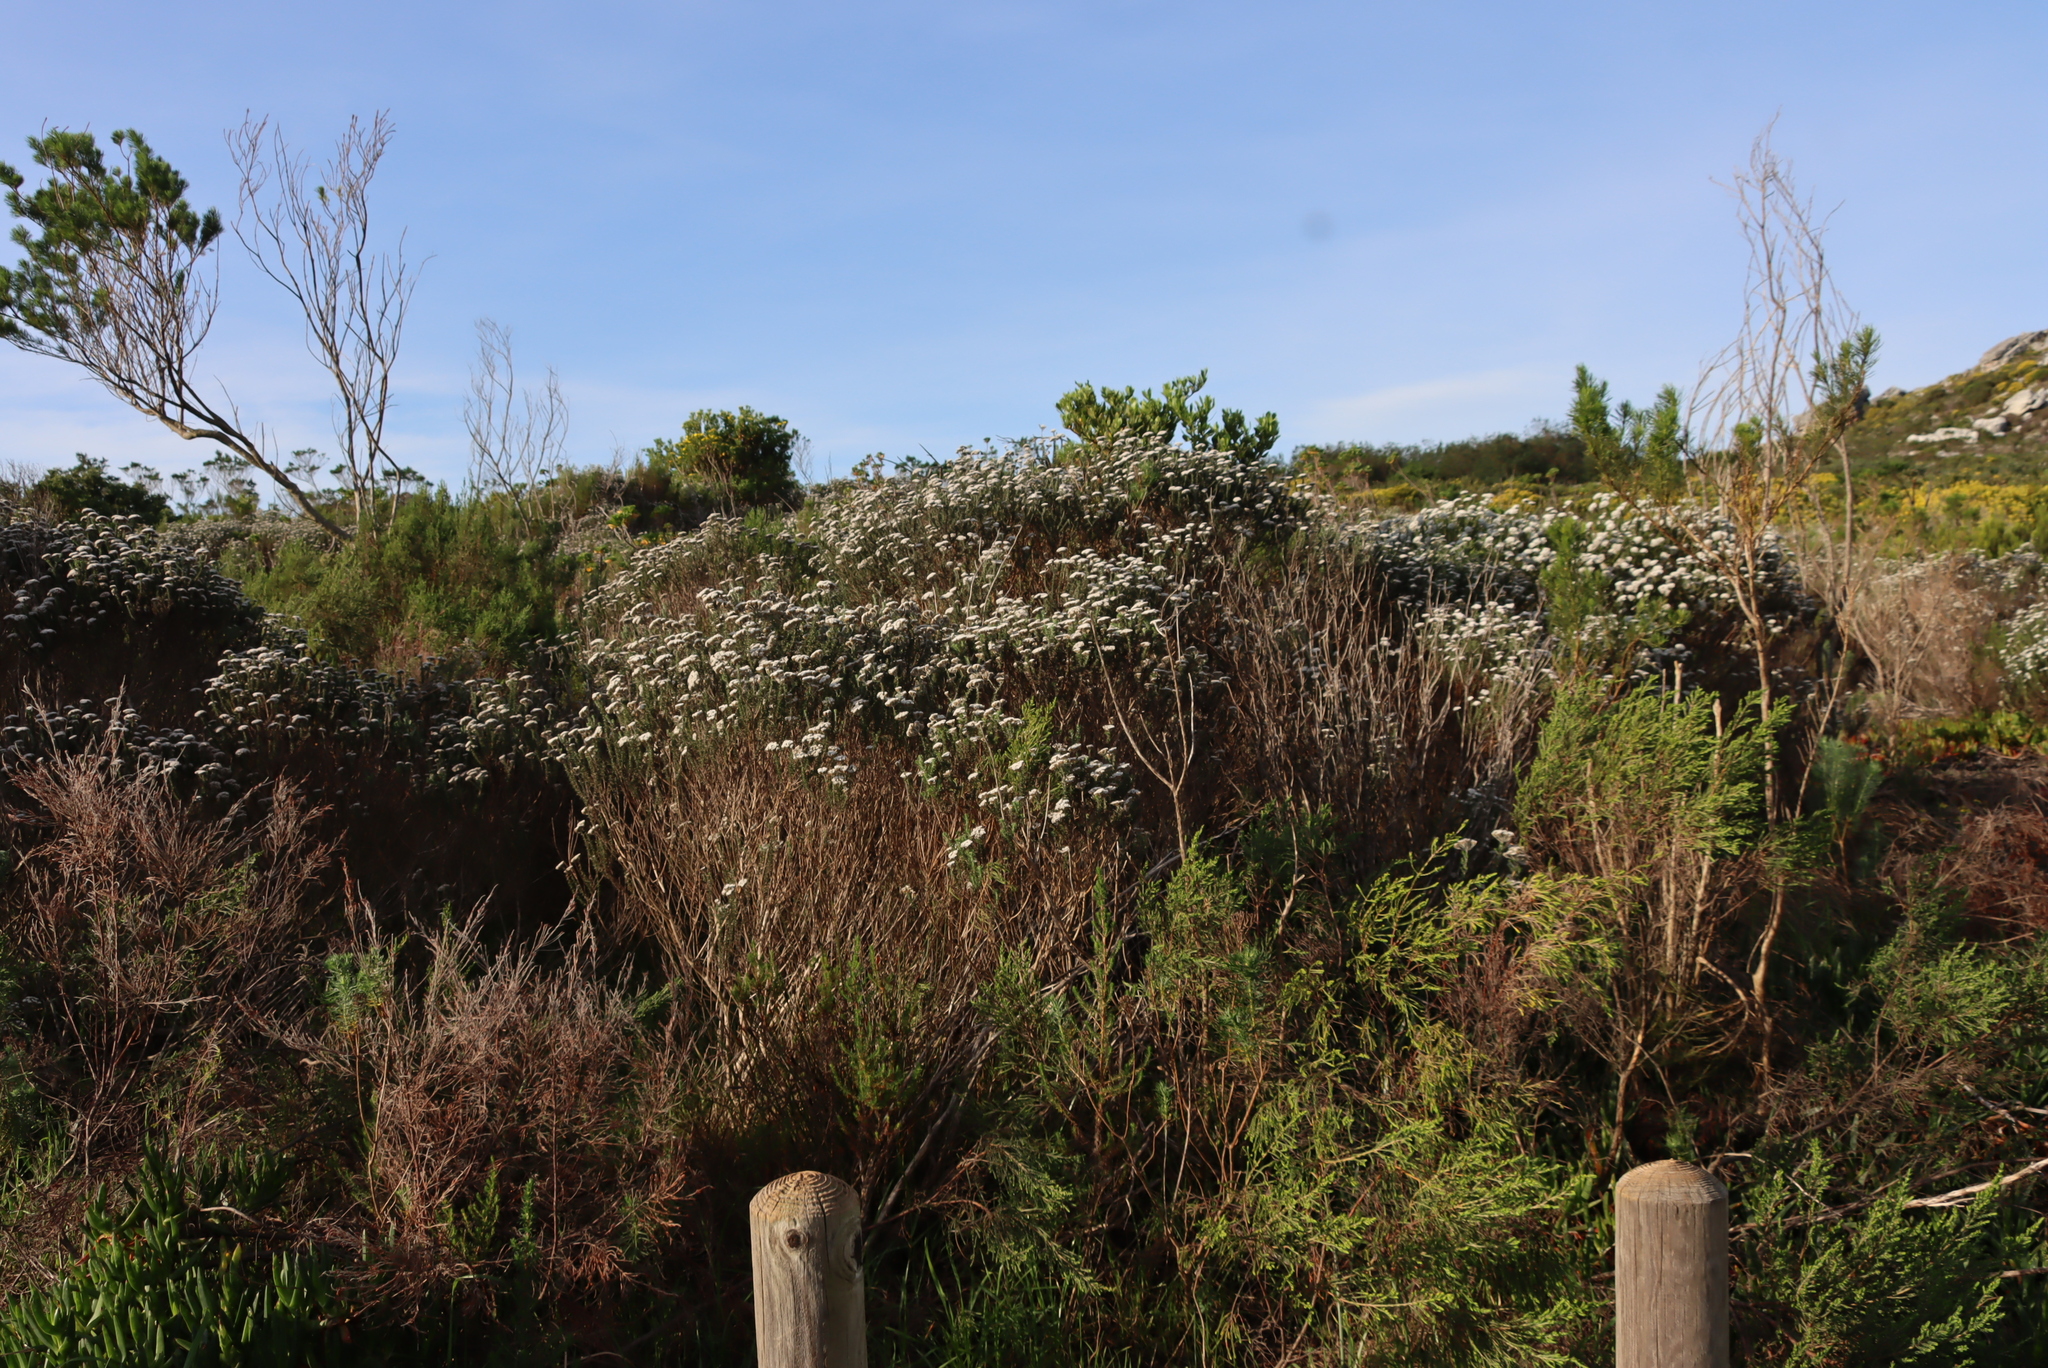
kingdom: Plantae
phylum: Tracheophyta
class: Magnoliopsida
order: Asterales
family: Asteraceae
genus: Metalasia
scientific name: Metalasia densa
